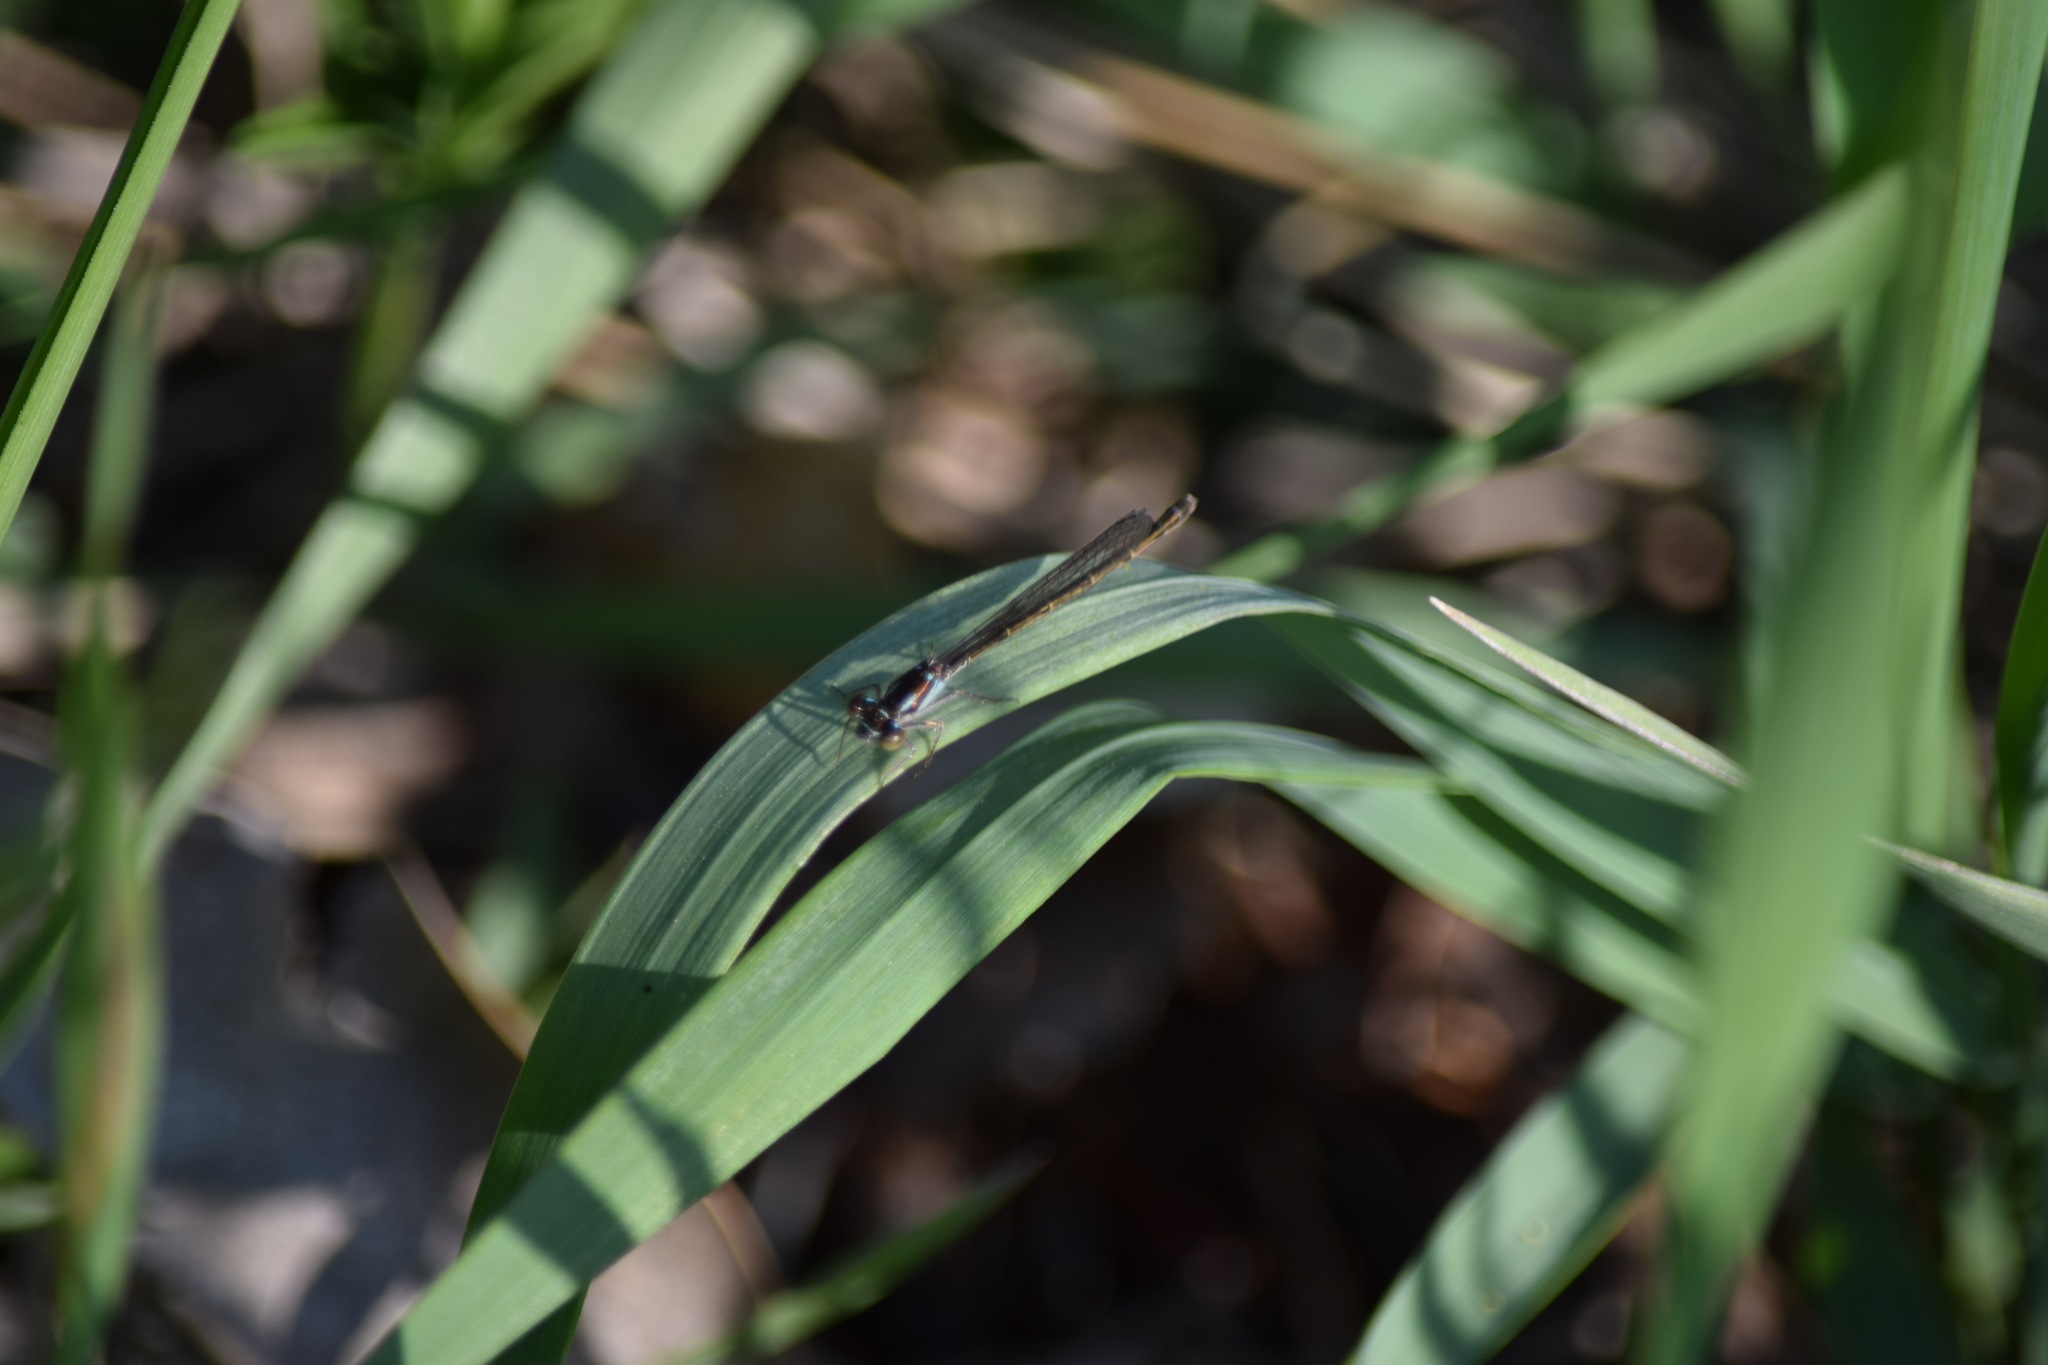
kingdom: Animalia
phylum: Arthropoda
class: Insecta
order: Odonata
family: Coenagrionidae
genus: Ischnura
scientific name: Ischnura posita
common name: Fragile forktail
